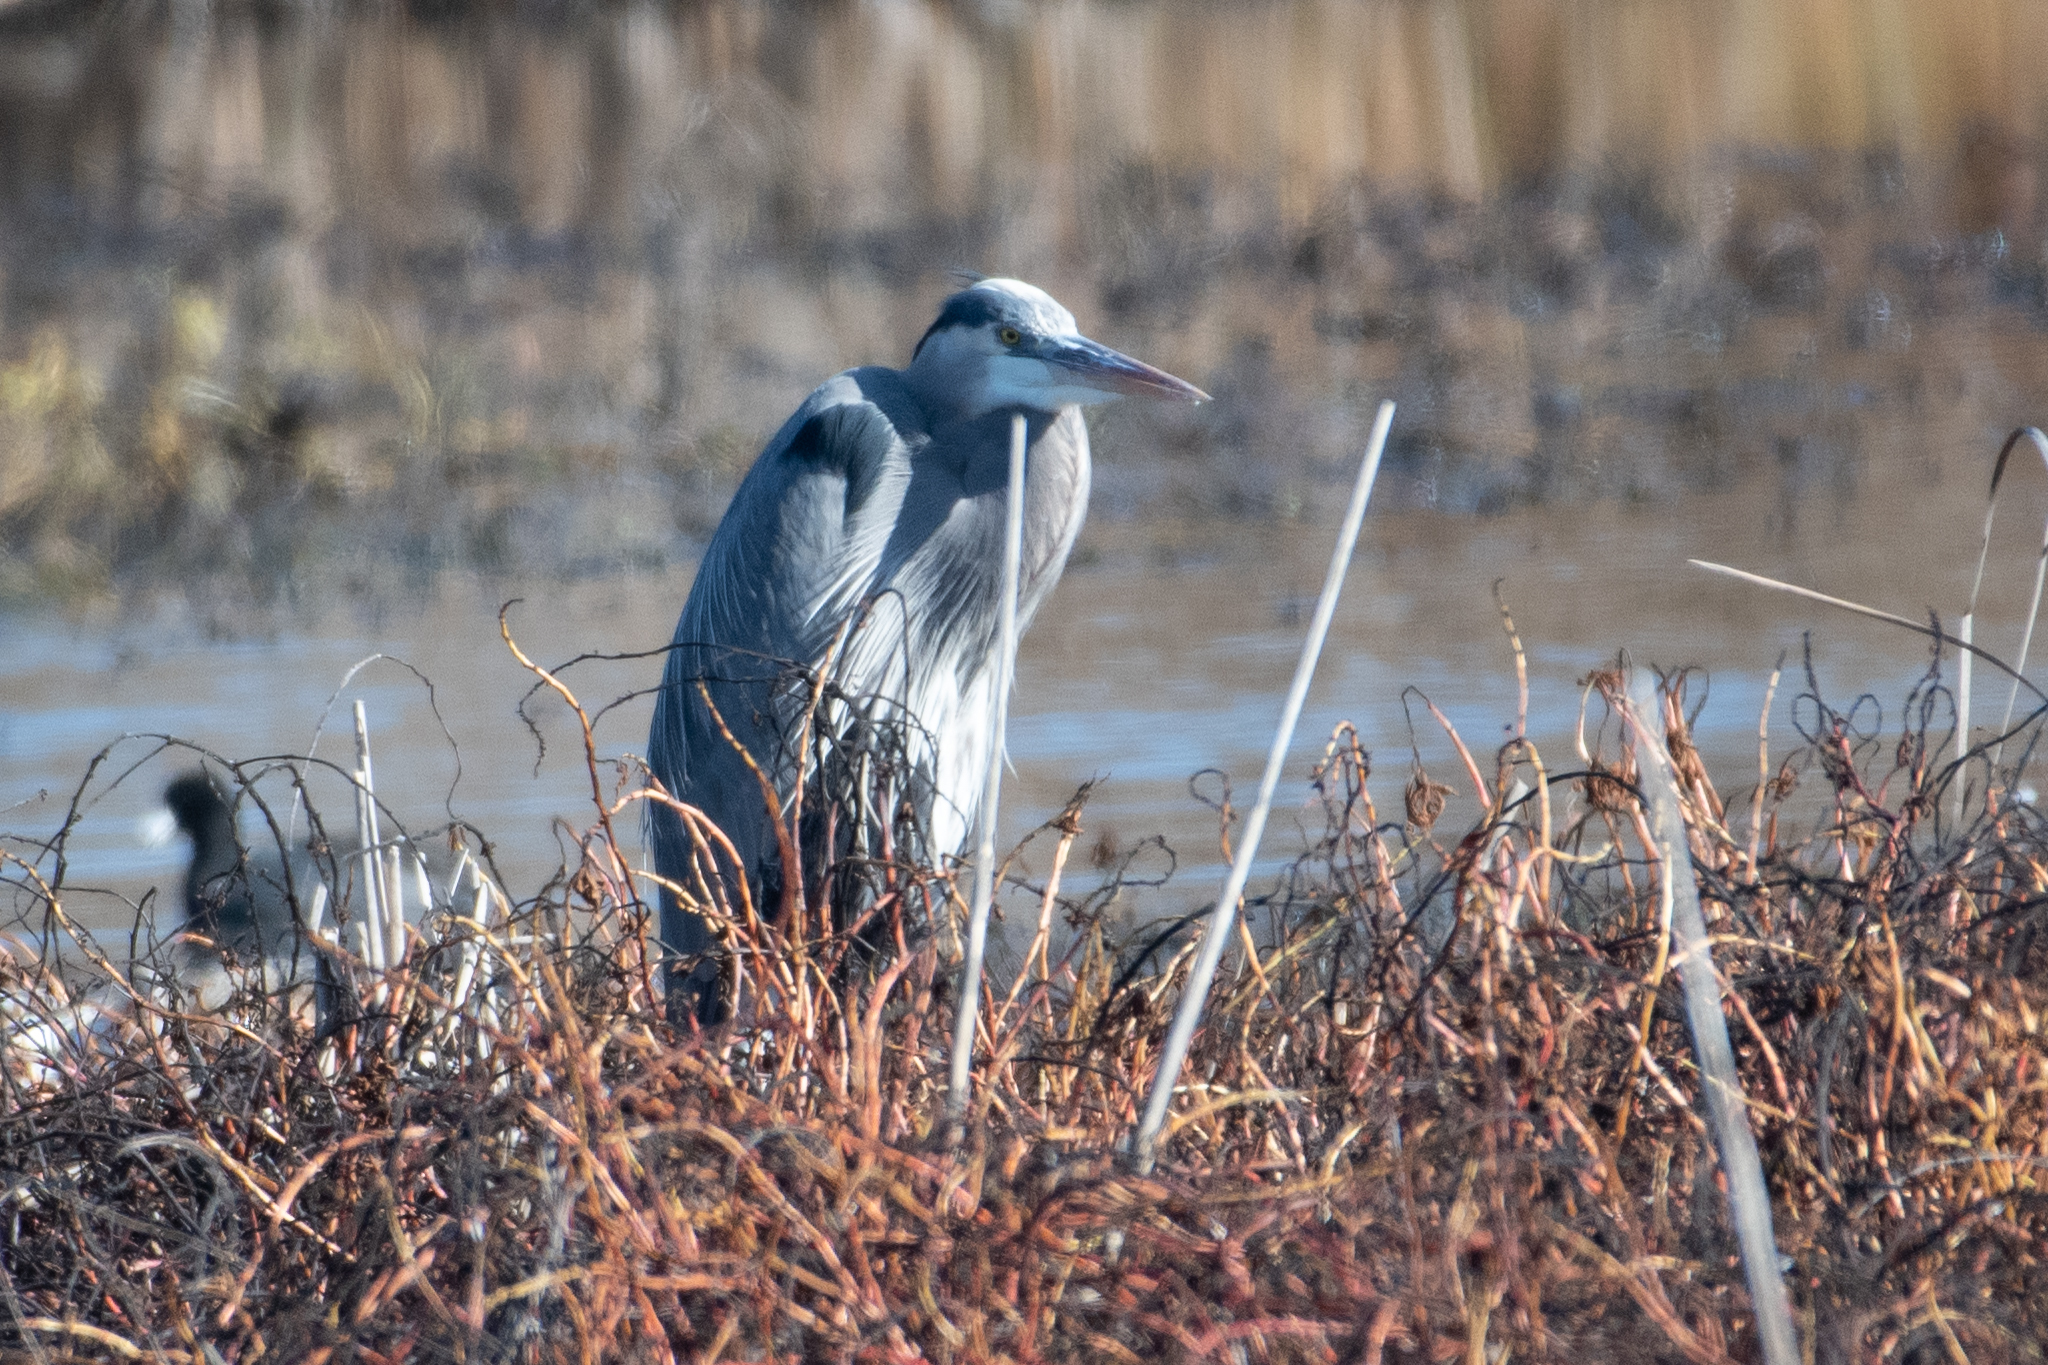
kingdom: Animalia
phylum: Chordata
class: Aves
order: Pelecaniformes
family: Ardeidae
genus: Ardea
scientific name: Ardea herodias
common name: Great blue heron
